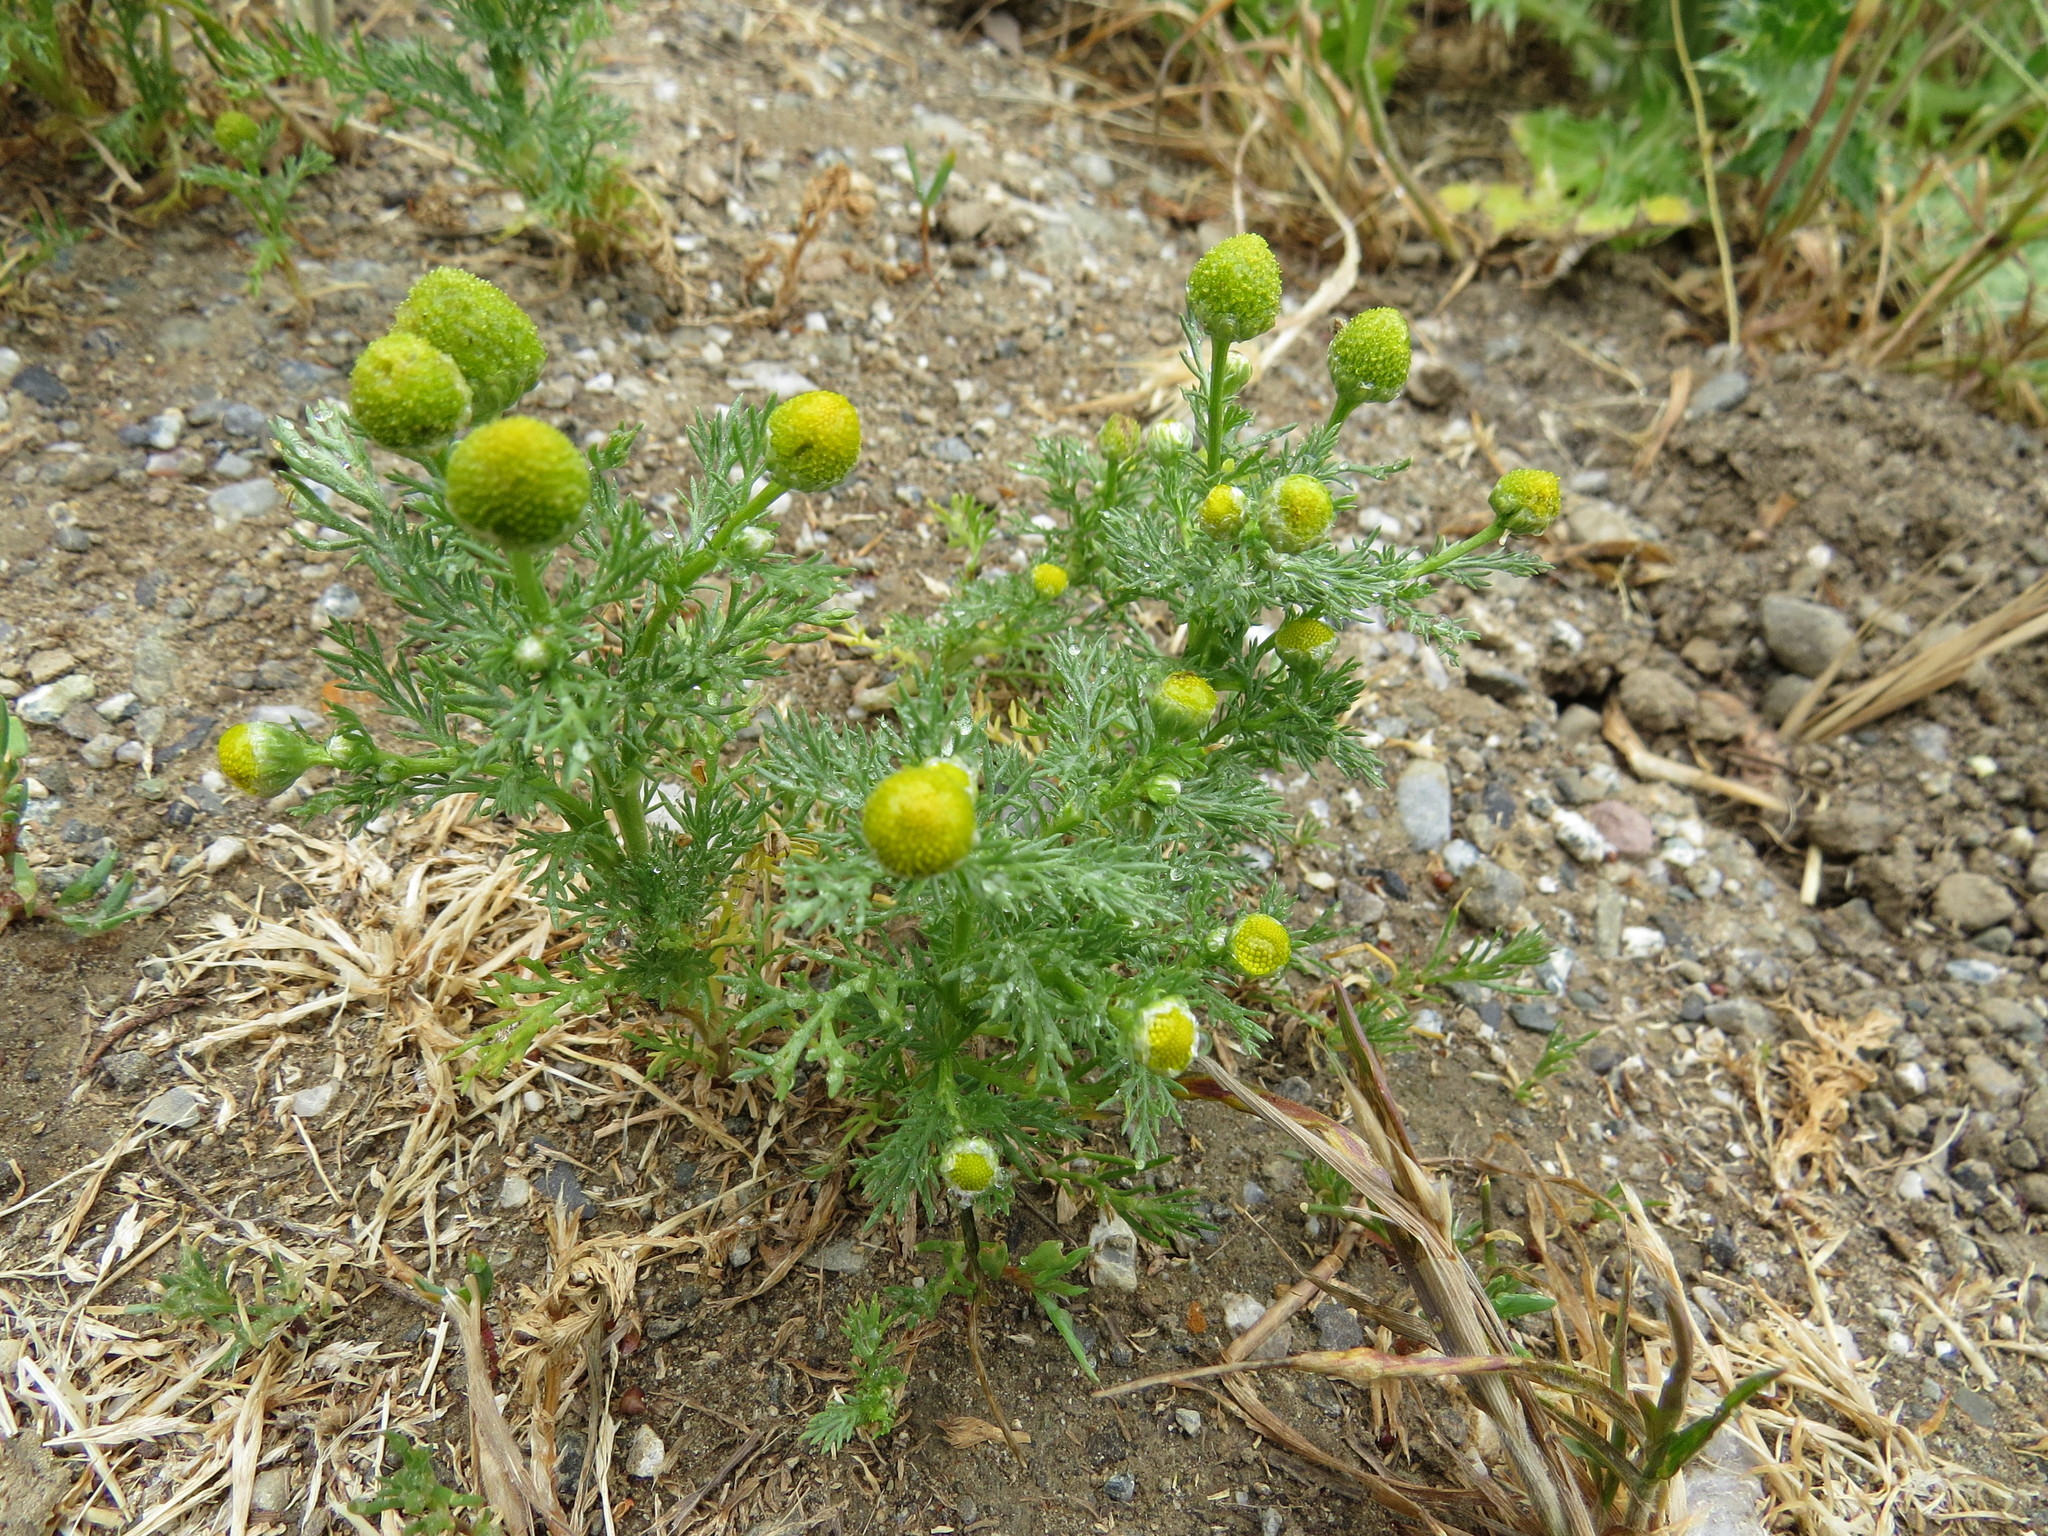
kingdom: Plantae
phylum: Tracheophyta
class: Magnoliopsida
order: Asterales
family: Asteraceae
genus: Matricaria
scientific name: Matricaria discoidea
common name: Disc mayweed
